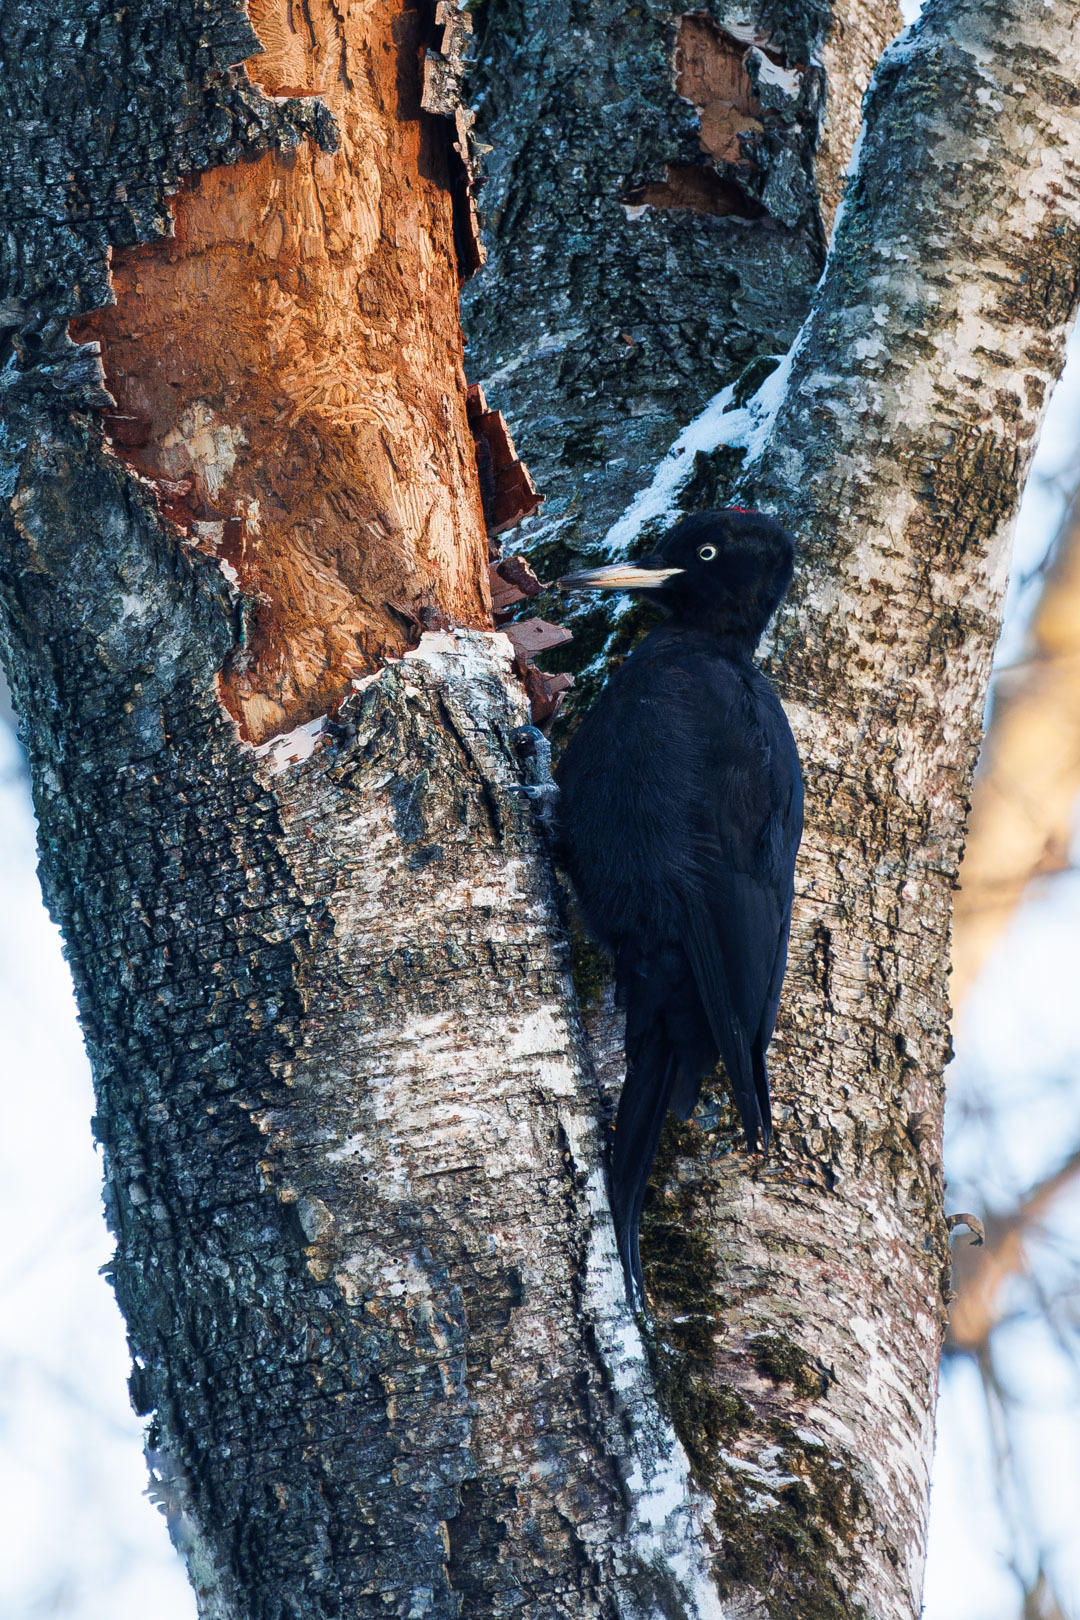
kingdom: Animalia
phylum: Chordata
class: Aves
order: Piciformes
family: Picidae
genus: Dryocopus
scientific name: Dryocopus martius
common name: Black woodpecker
